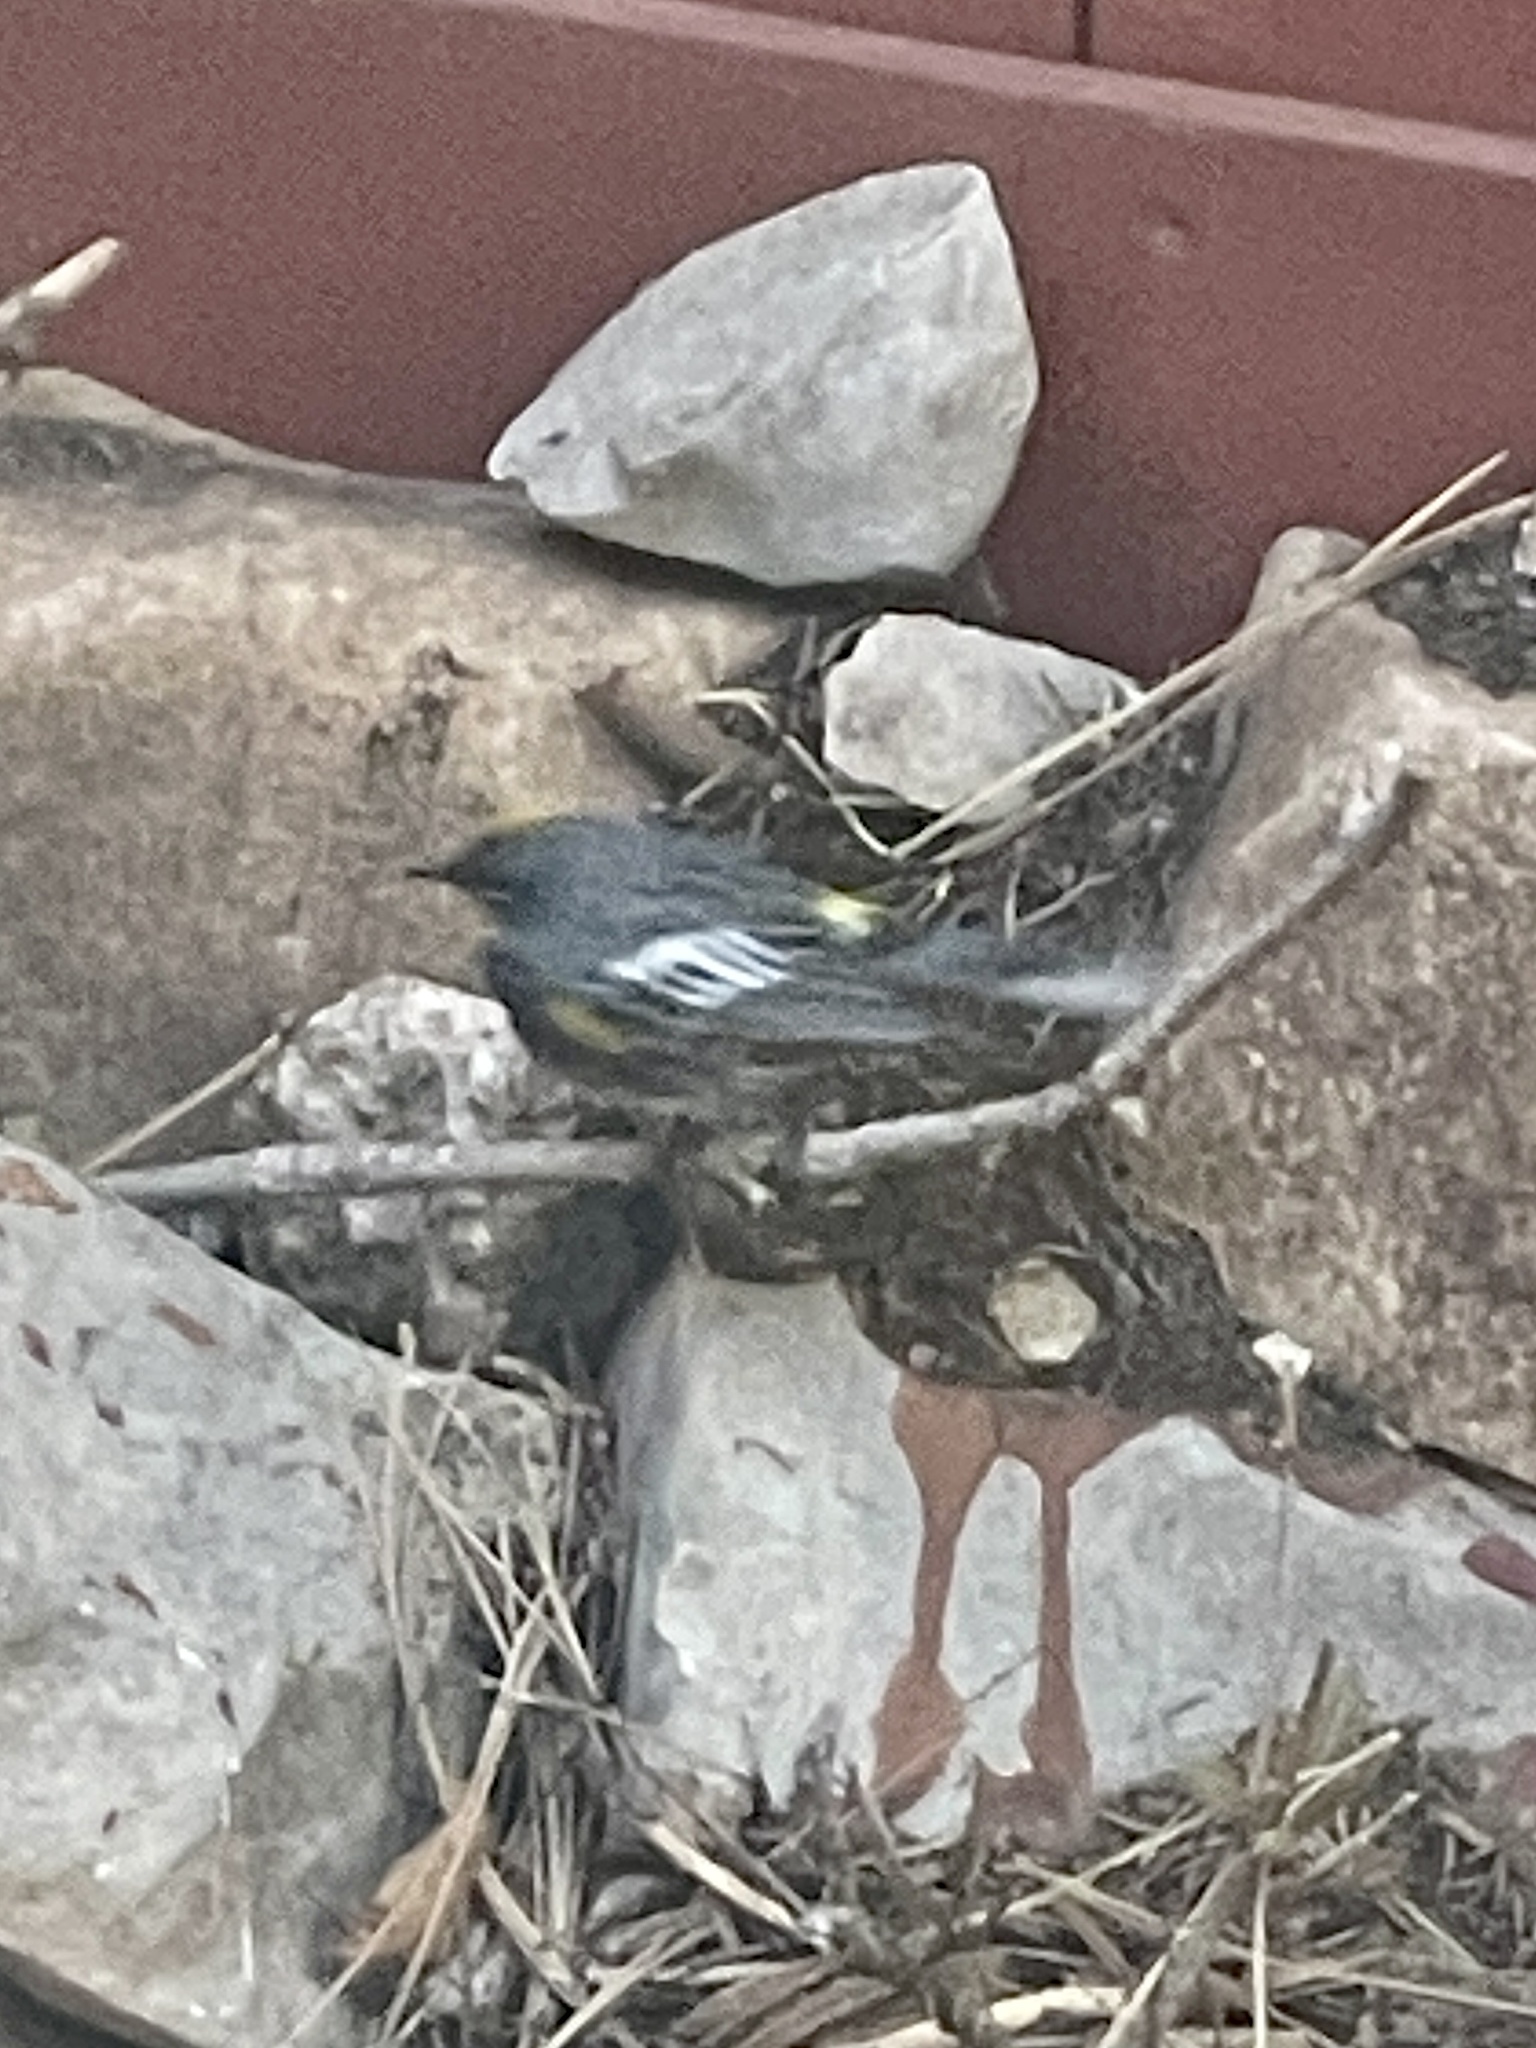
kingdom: Animalia
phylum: Chordata
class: Aves
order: Passeriformes
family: Parulidae
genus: Setophaga
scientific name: Setophaga coronata
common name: Myrtle warbler
